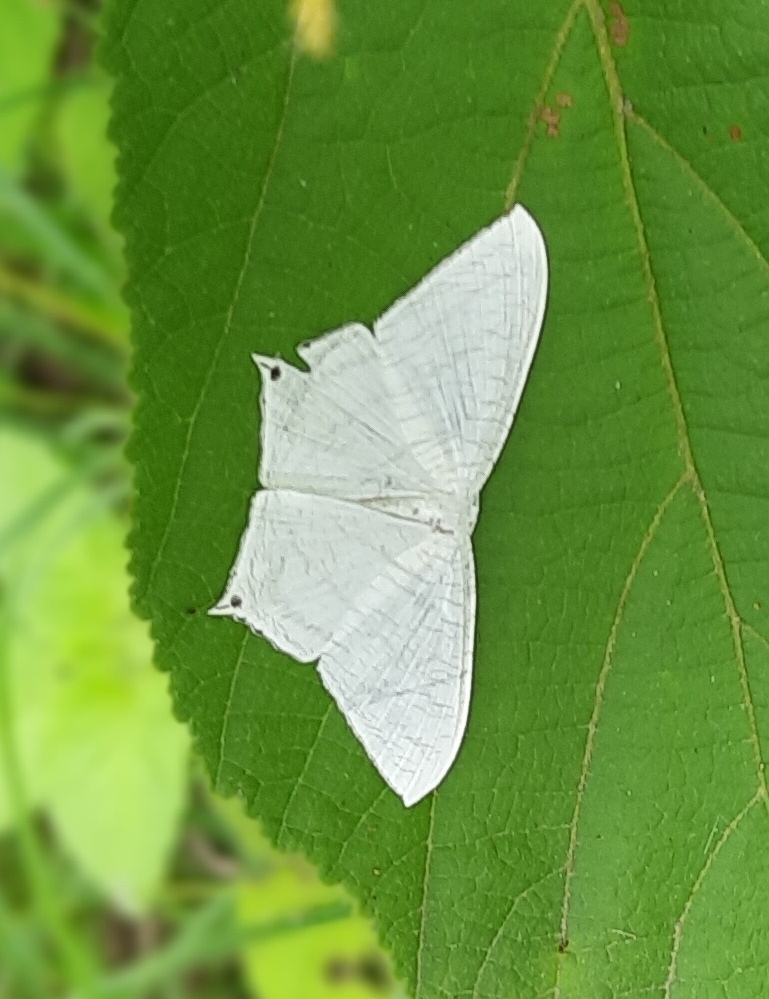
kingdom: Animalia
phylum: Arthropoda
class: Insecta
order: Lepidoptera
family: Uraniidae
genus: Micronia
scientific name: Micronia aculeata
